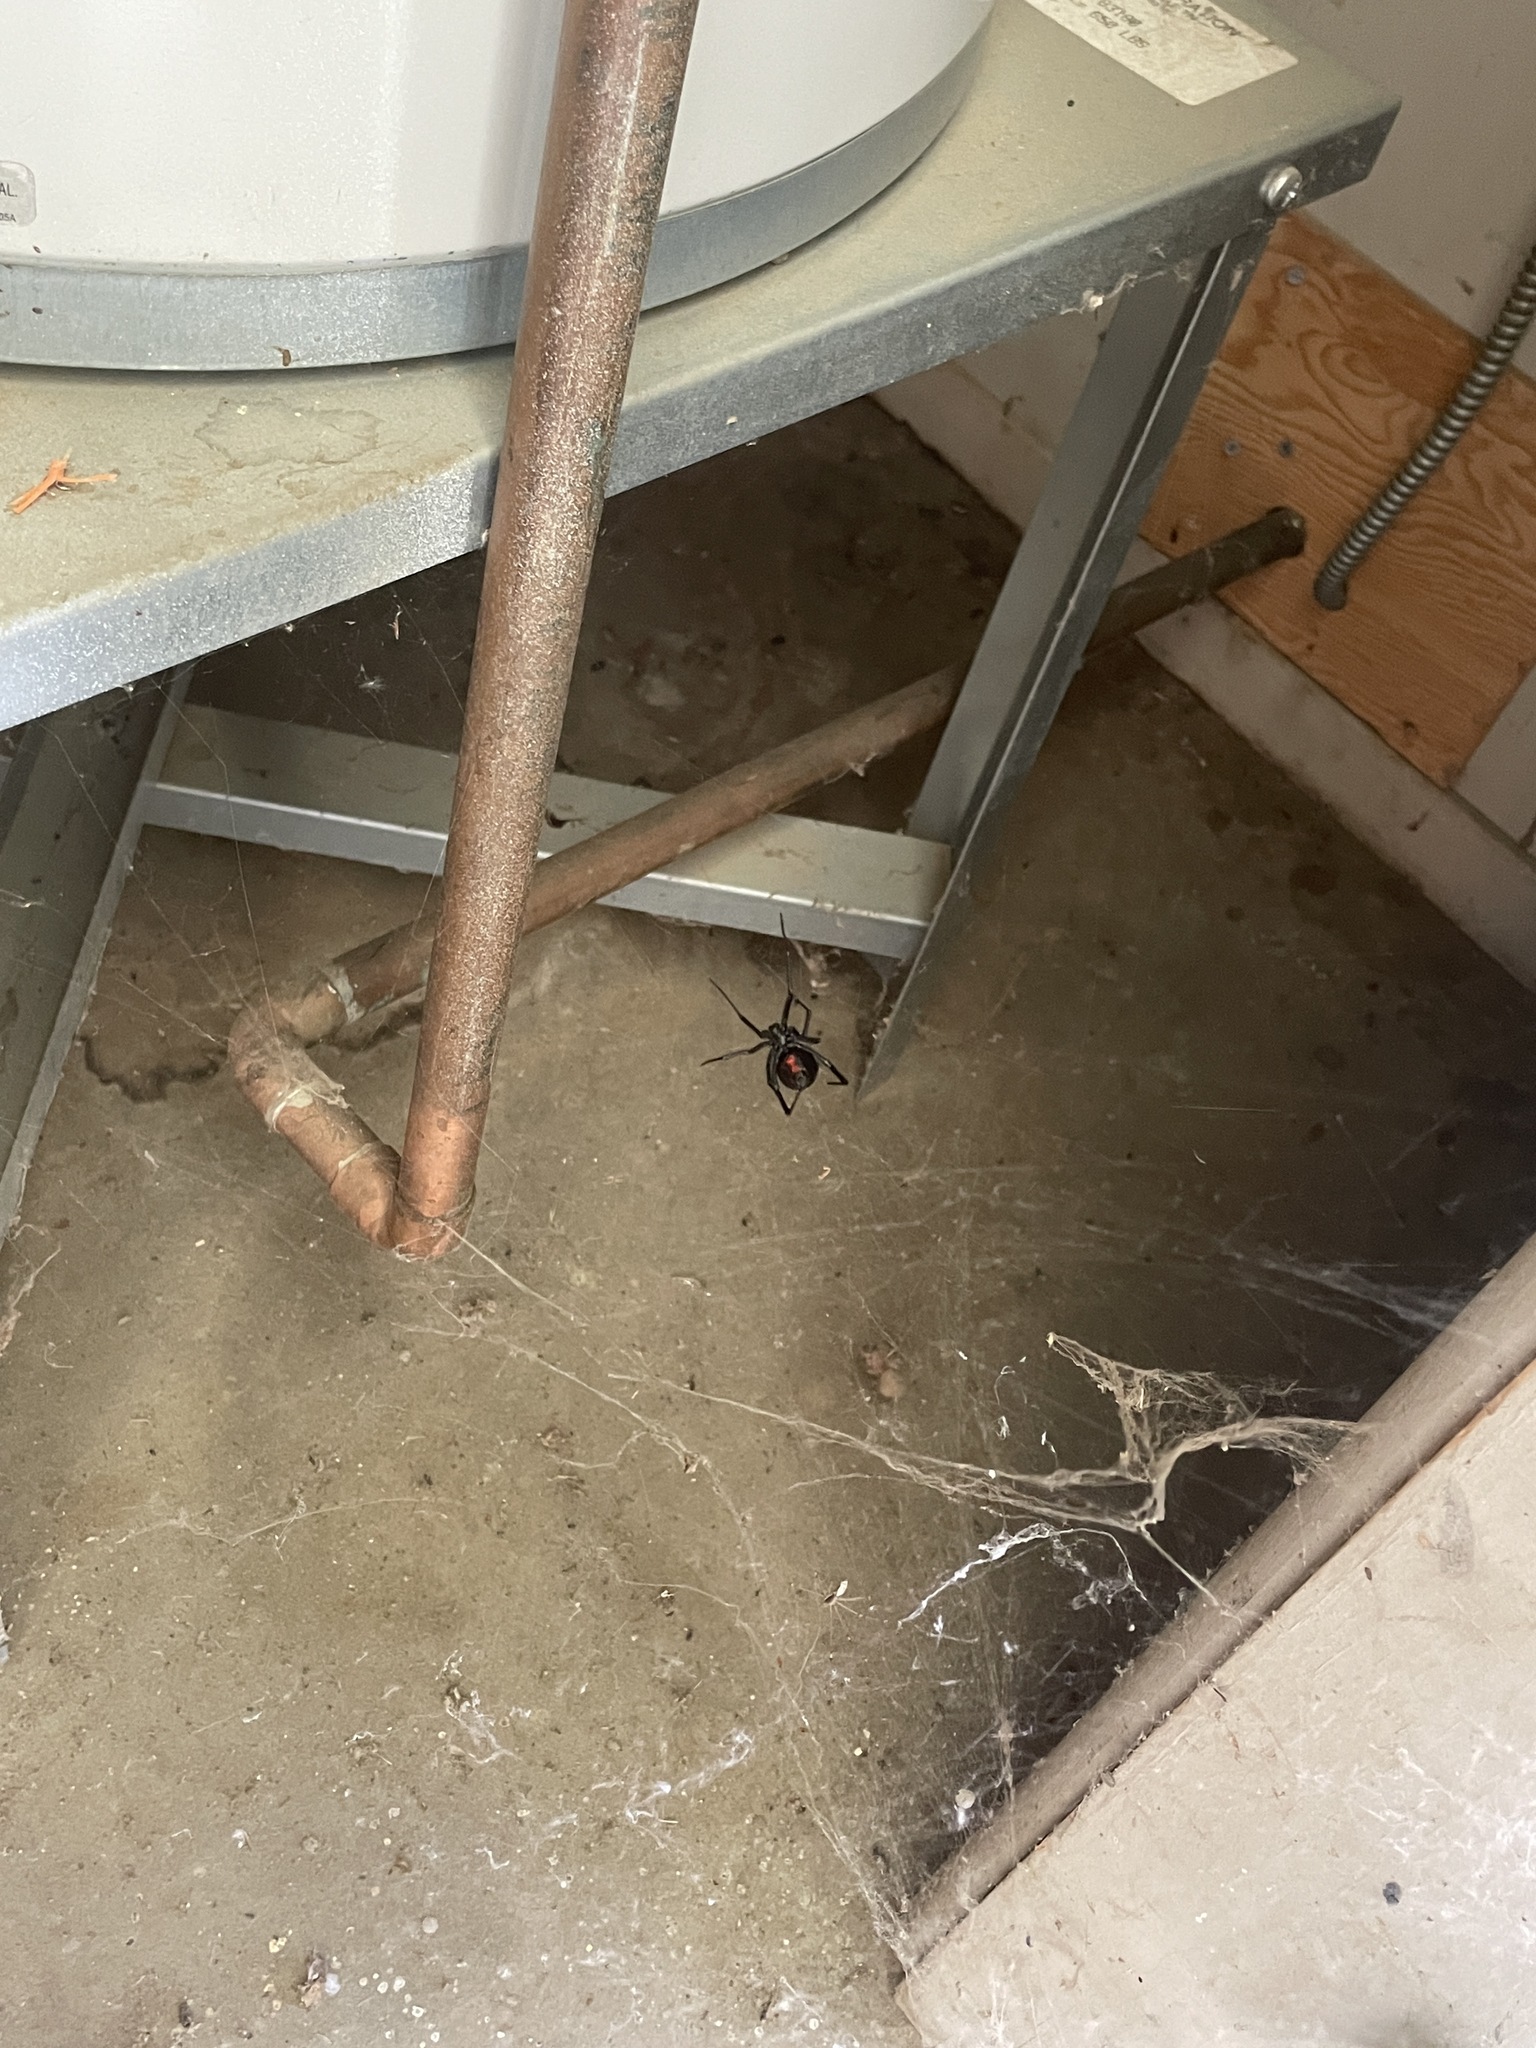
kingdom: Animalia
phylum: Arthropoda
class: Arachnida
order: Araneae
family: Theridiidae
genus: Latrodectus
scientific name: Latrodectus hesperus
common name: Western black widow
